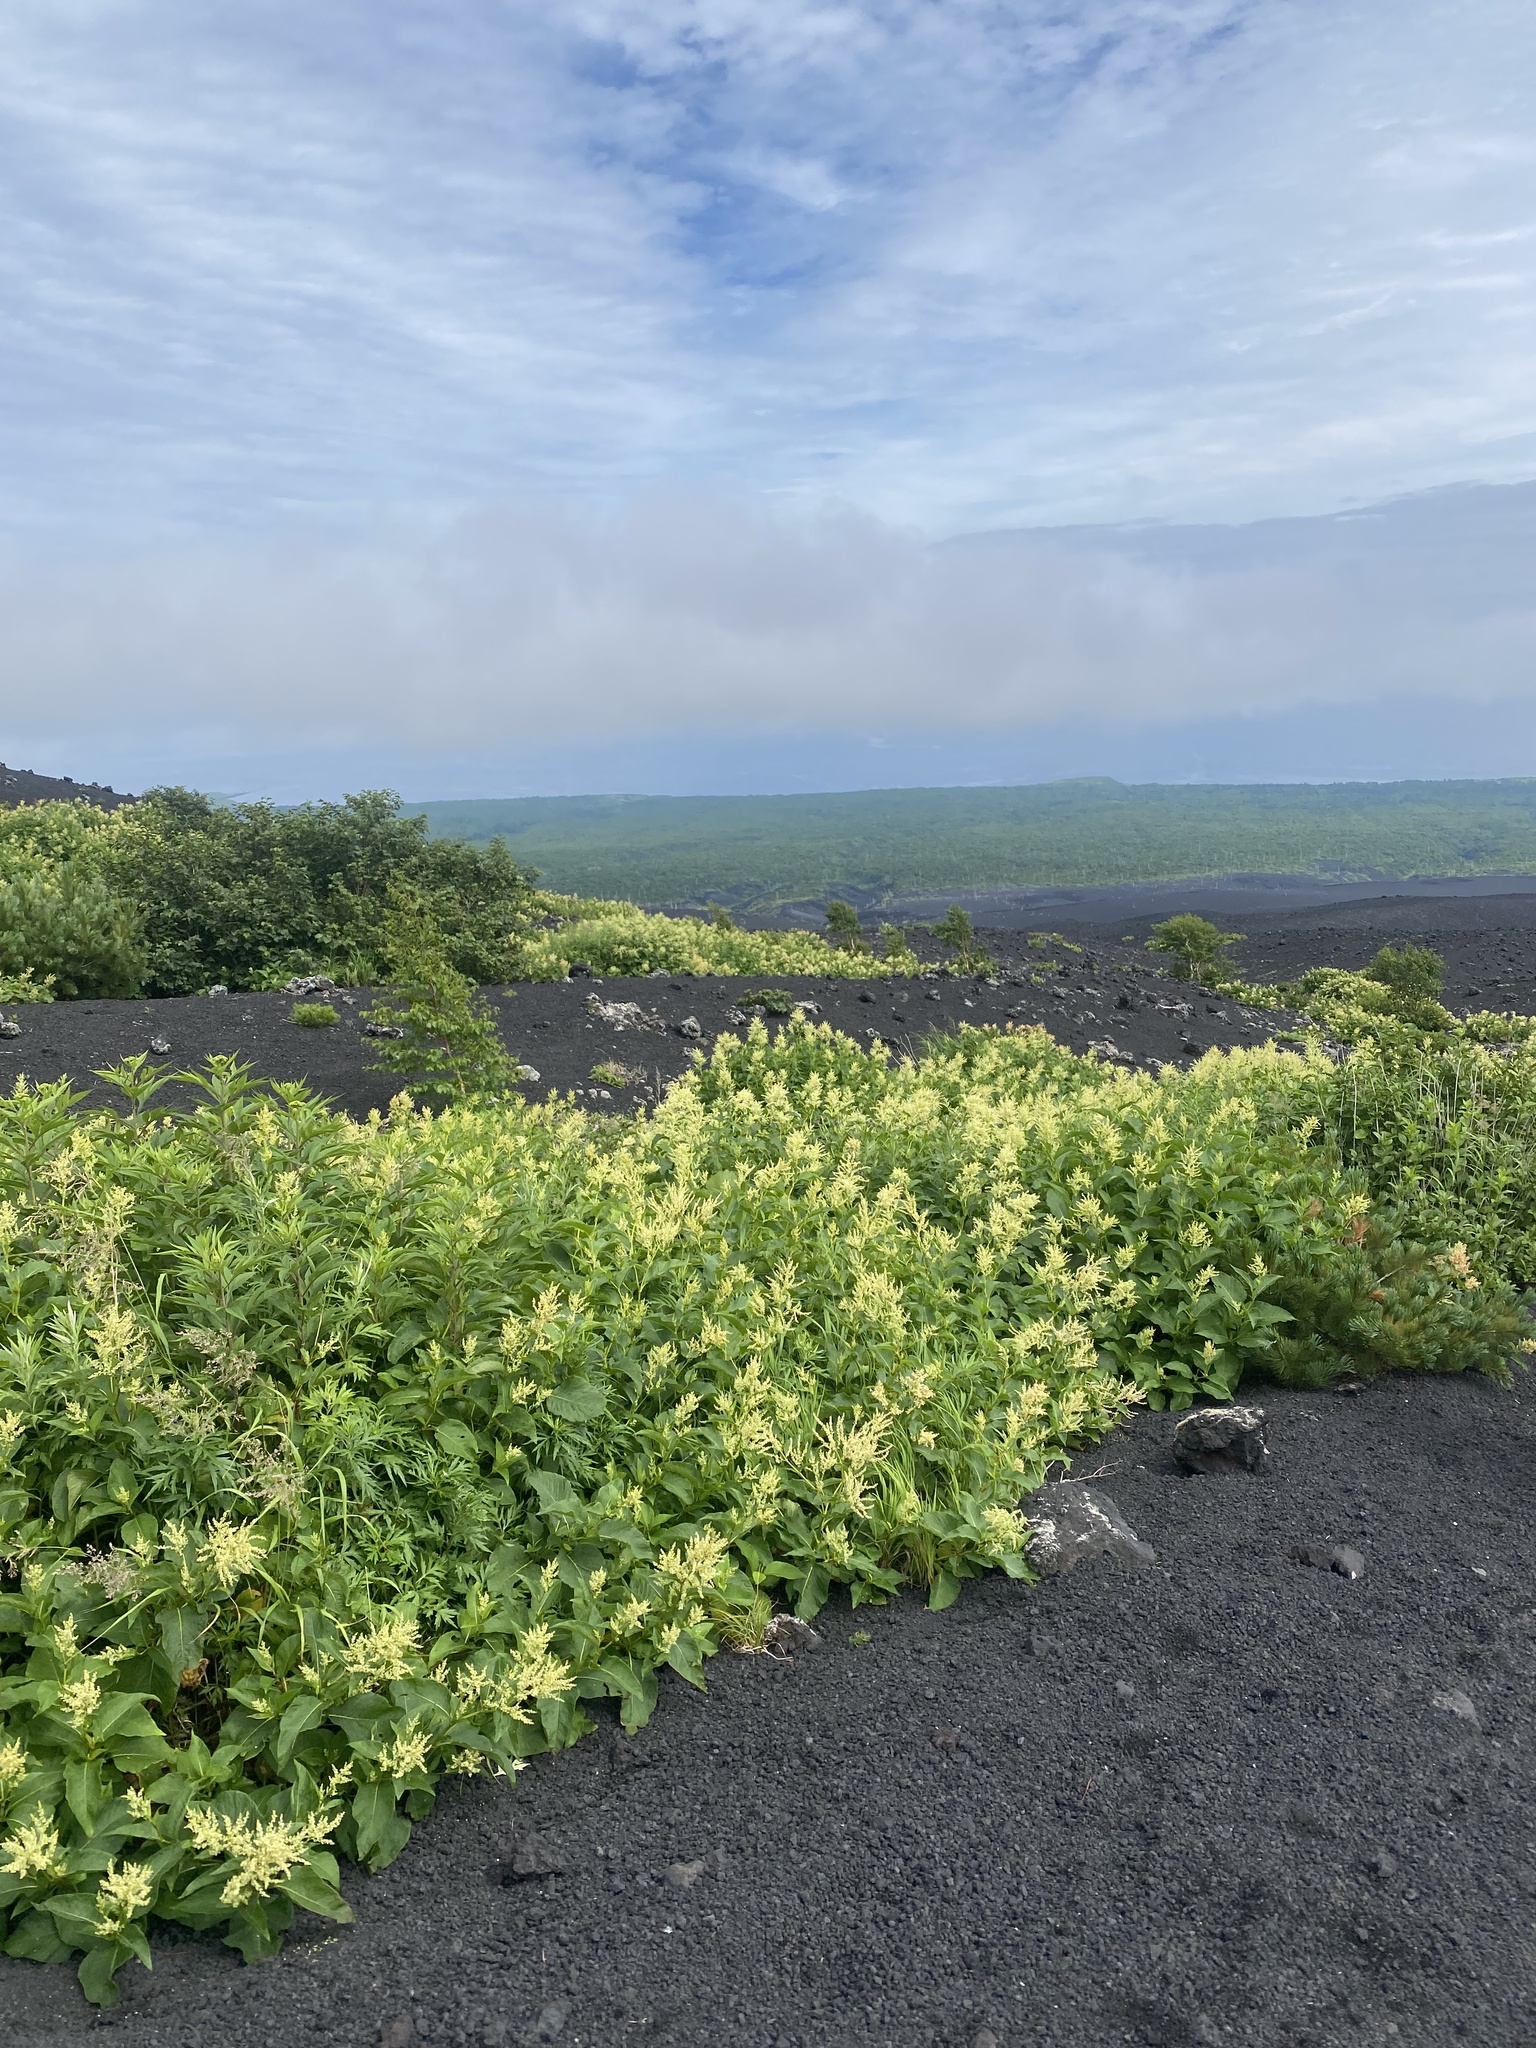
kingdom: Plantae
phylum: Tracheophyta
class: Magnoliopsida
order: Caryophyllales
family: Polygonaceae
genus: Koenigia
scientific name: Koenigia weyrichii
